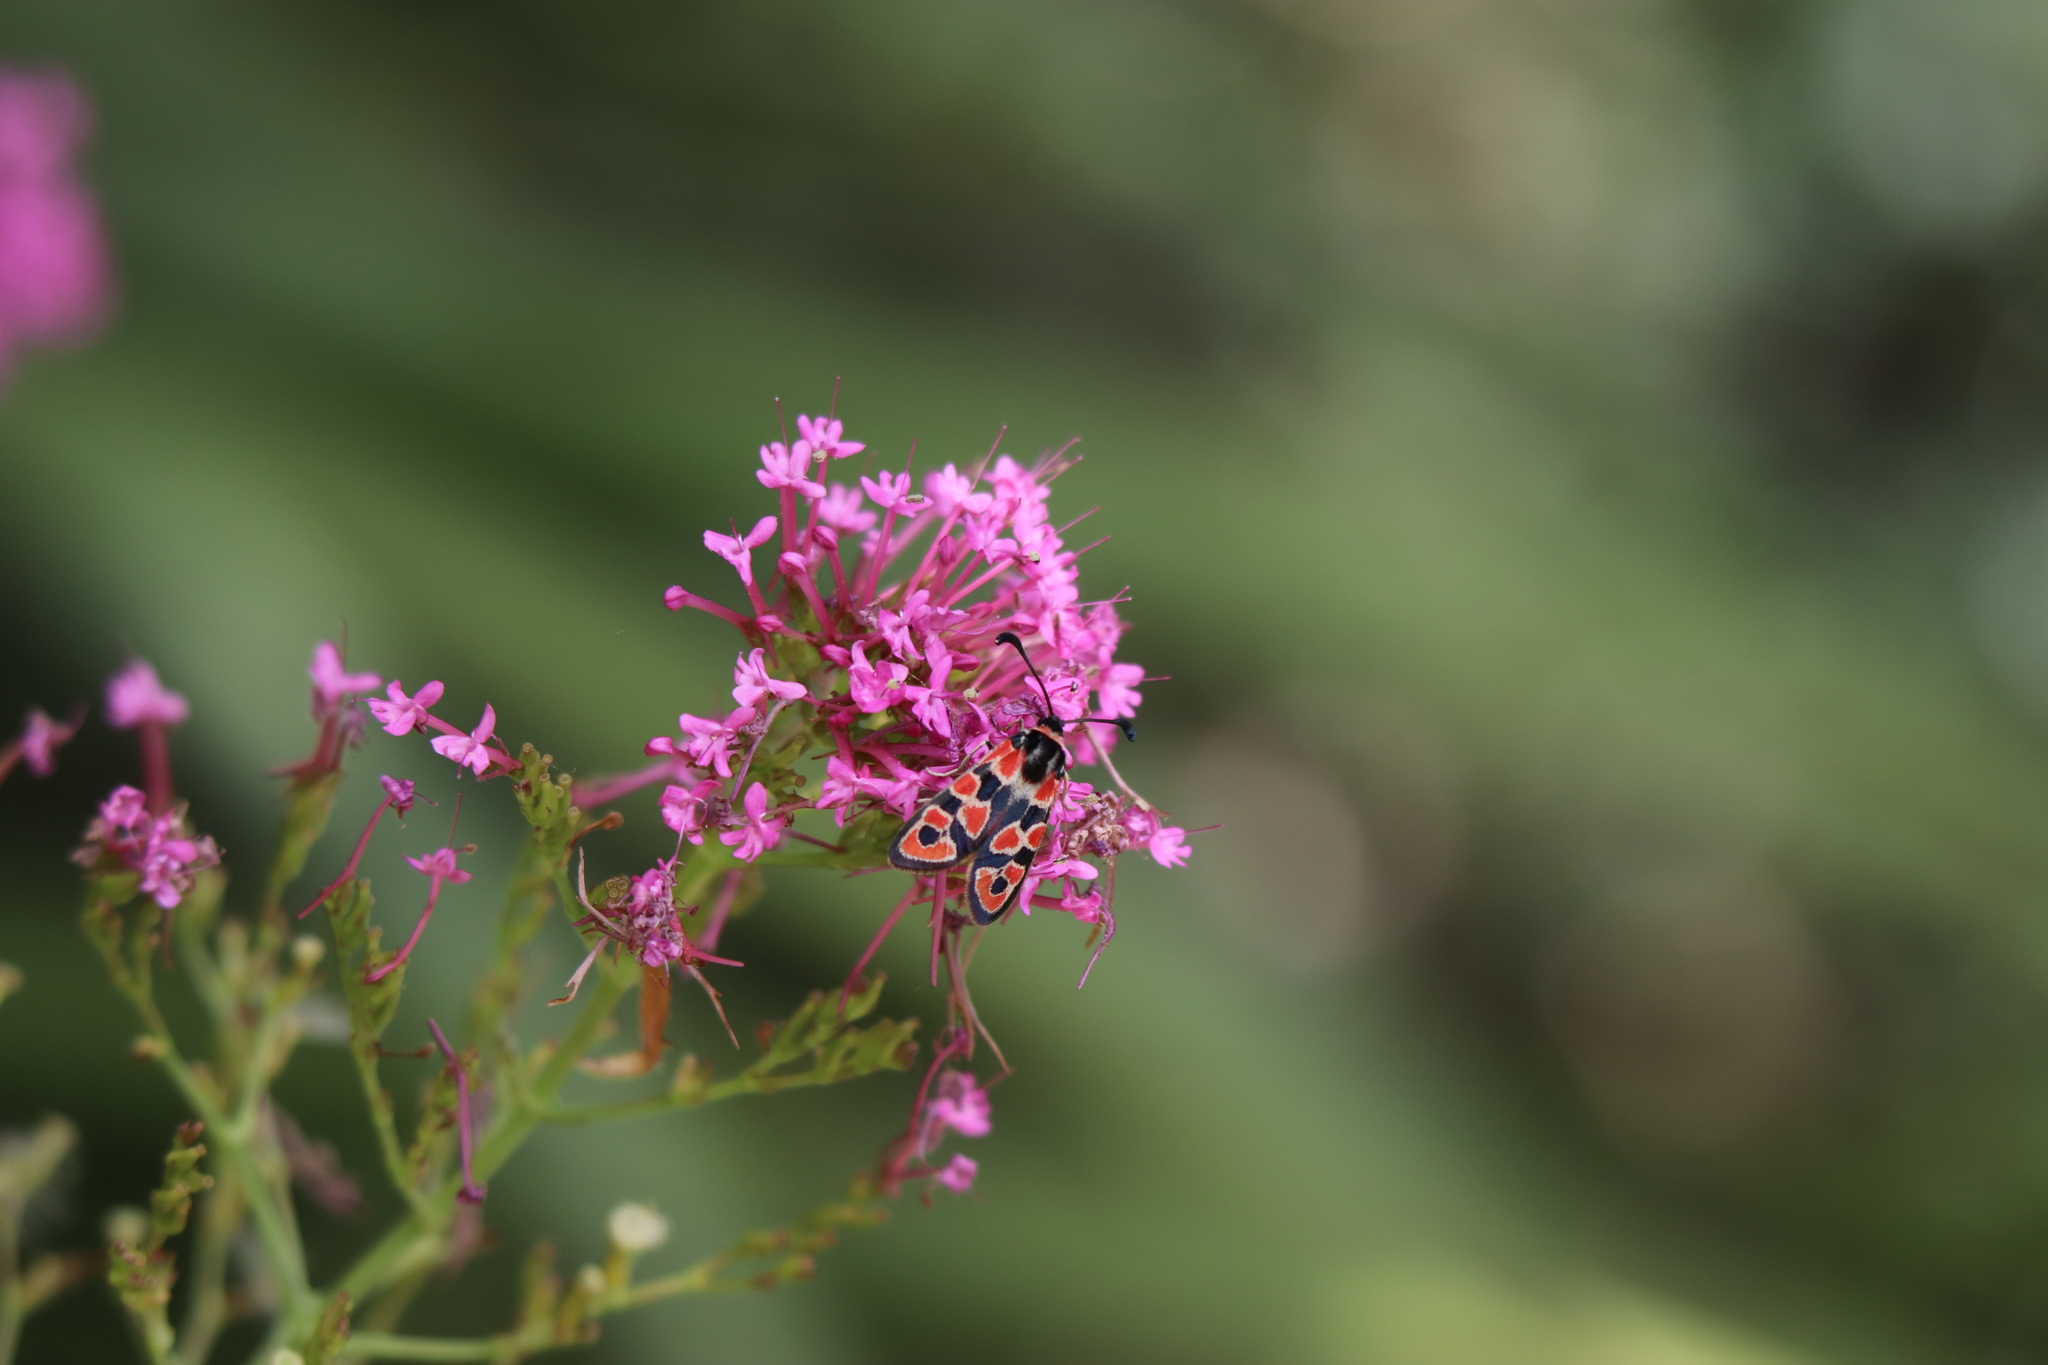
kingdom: Animalia
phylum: Arthropoda
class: Insecta
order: Lepidoptera
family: Zygaenidae
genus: Zygaena
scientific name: Zygaena fausta
